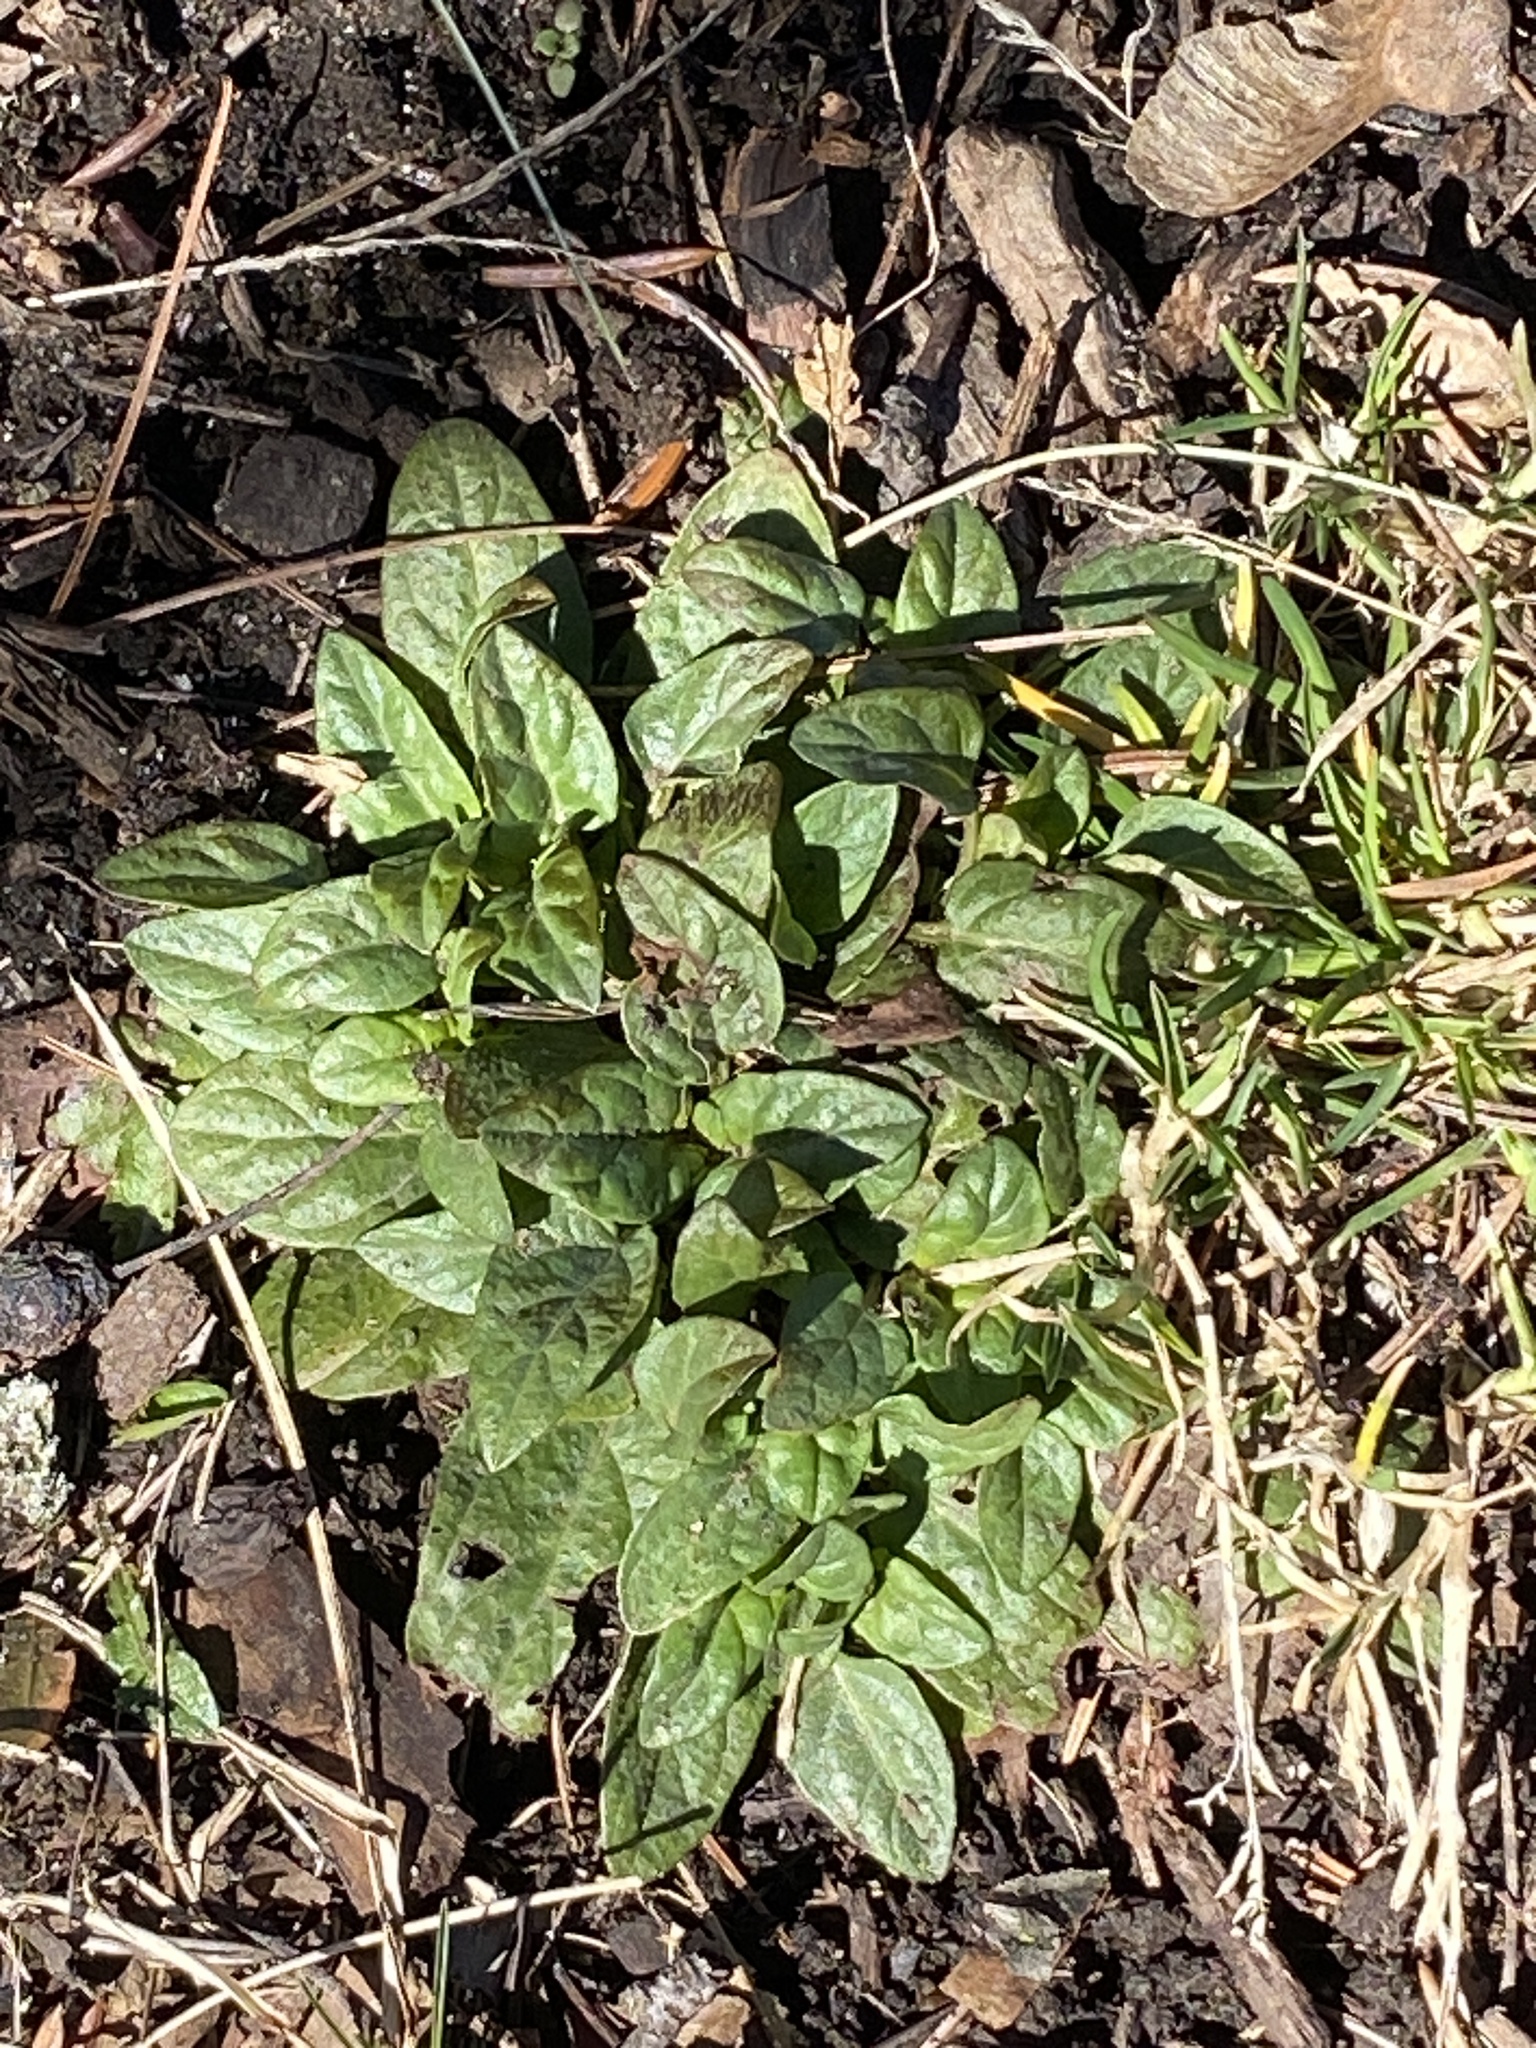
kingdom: Plantae
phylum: Tracheophyta
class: Magnoliopsida
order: Lamiales
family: Lamiaceae
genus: Prunella
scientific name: Prunella vulgaris
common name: Heal-all
